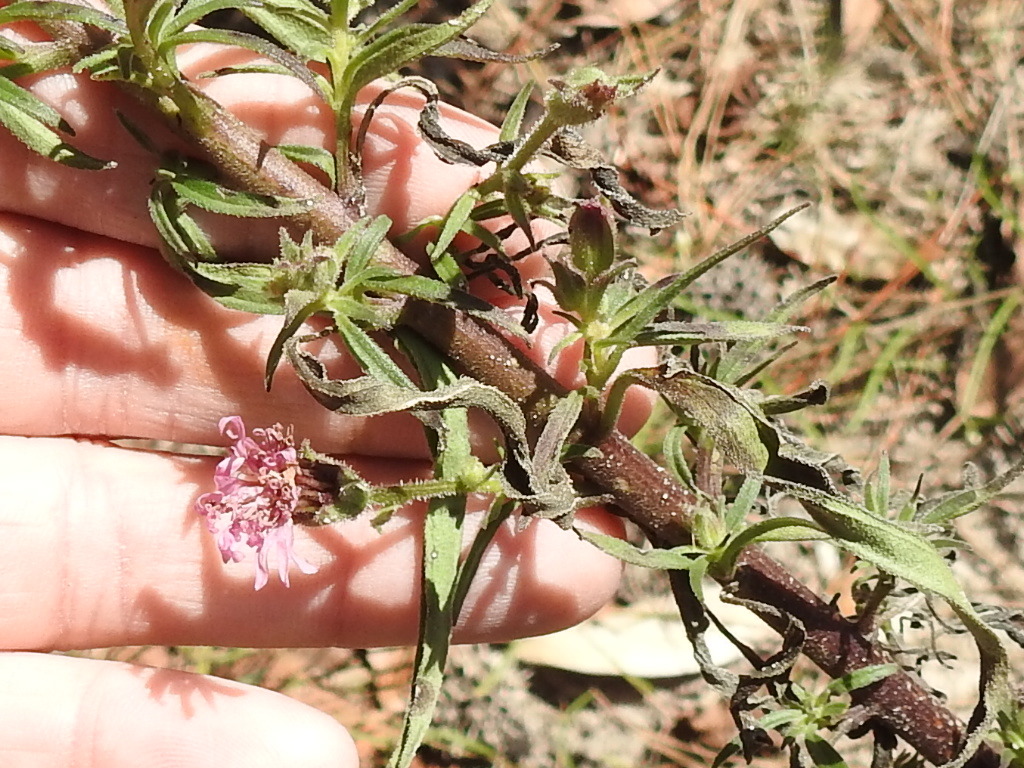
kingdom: Plantae
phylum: Tracheophyta
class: Magnoliopsida
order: Asterales
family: Asteraceae
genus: Palafoxia
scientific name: Palafoxia hookeriana
